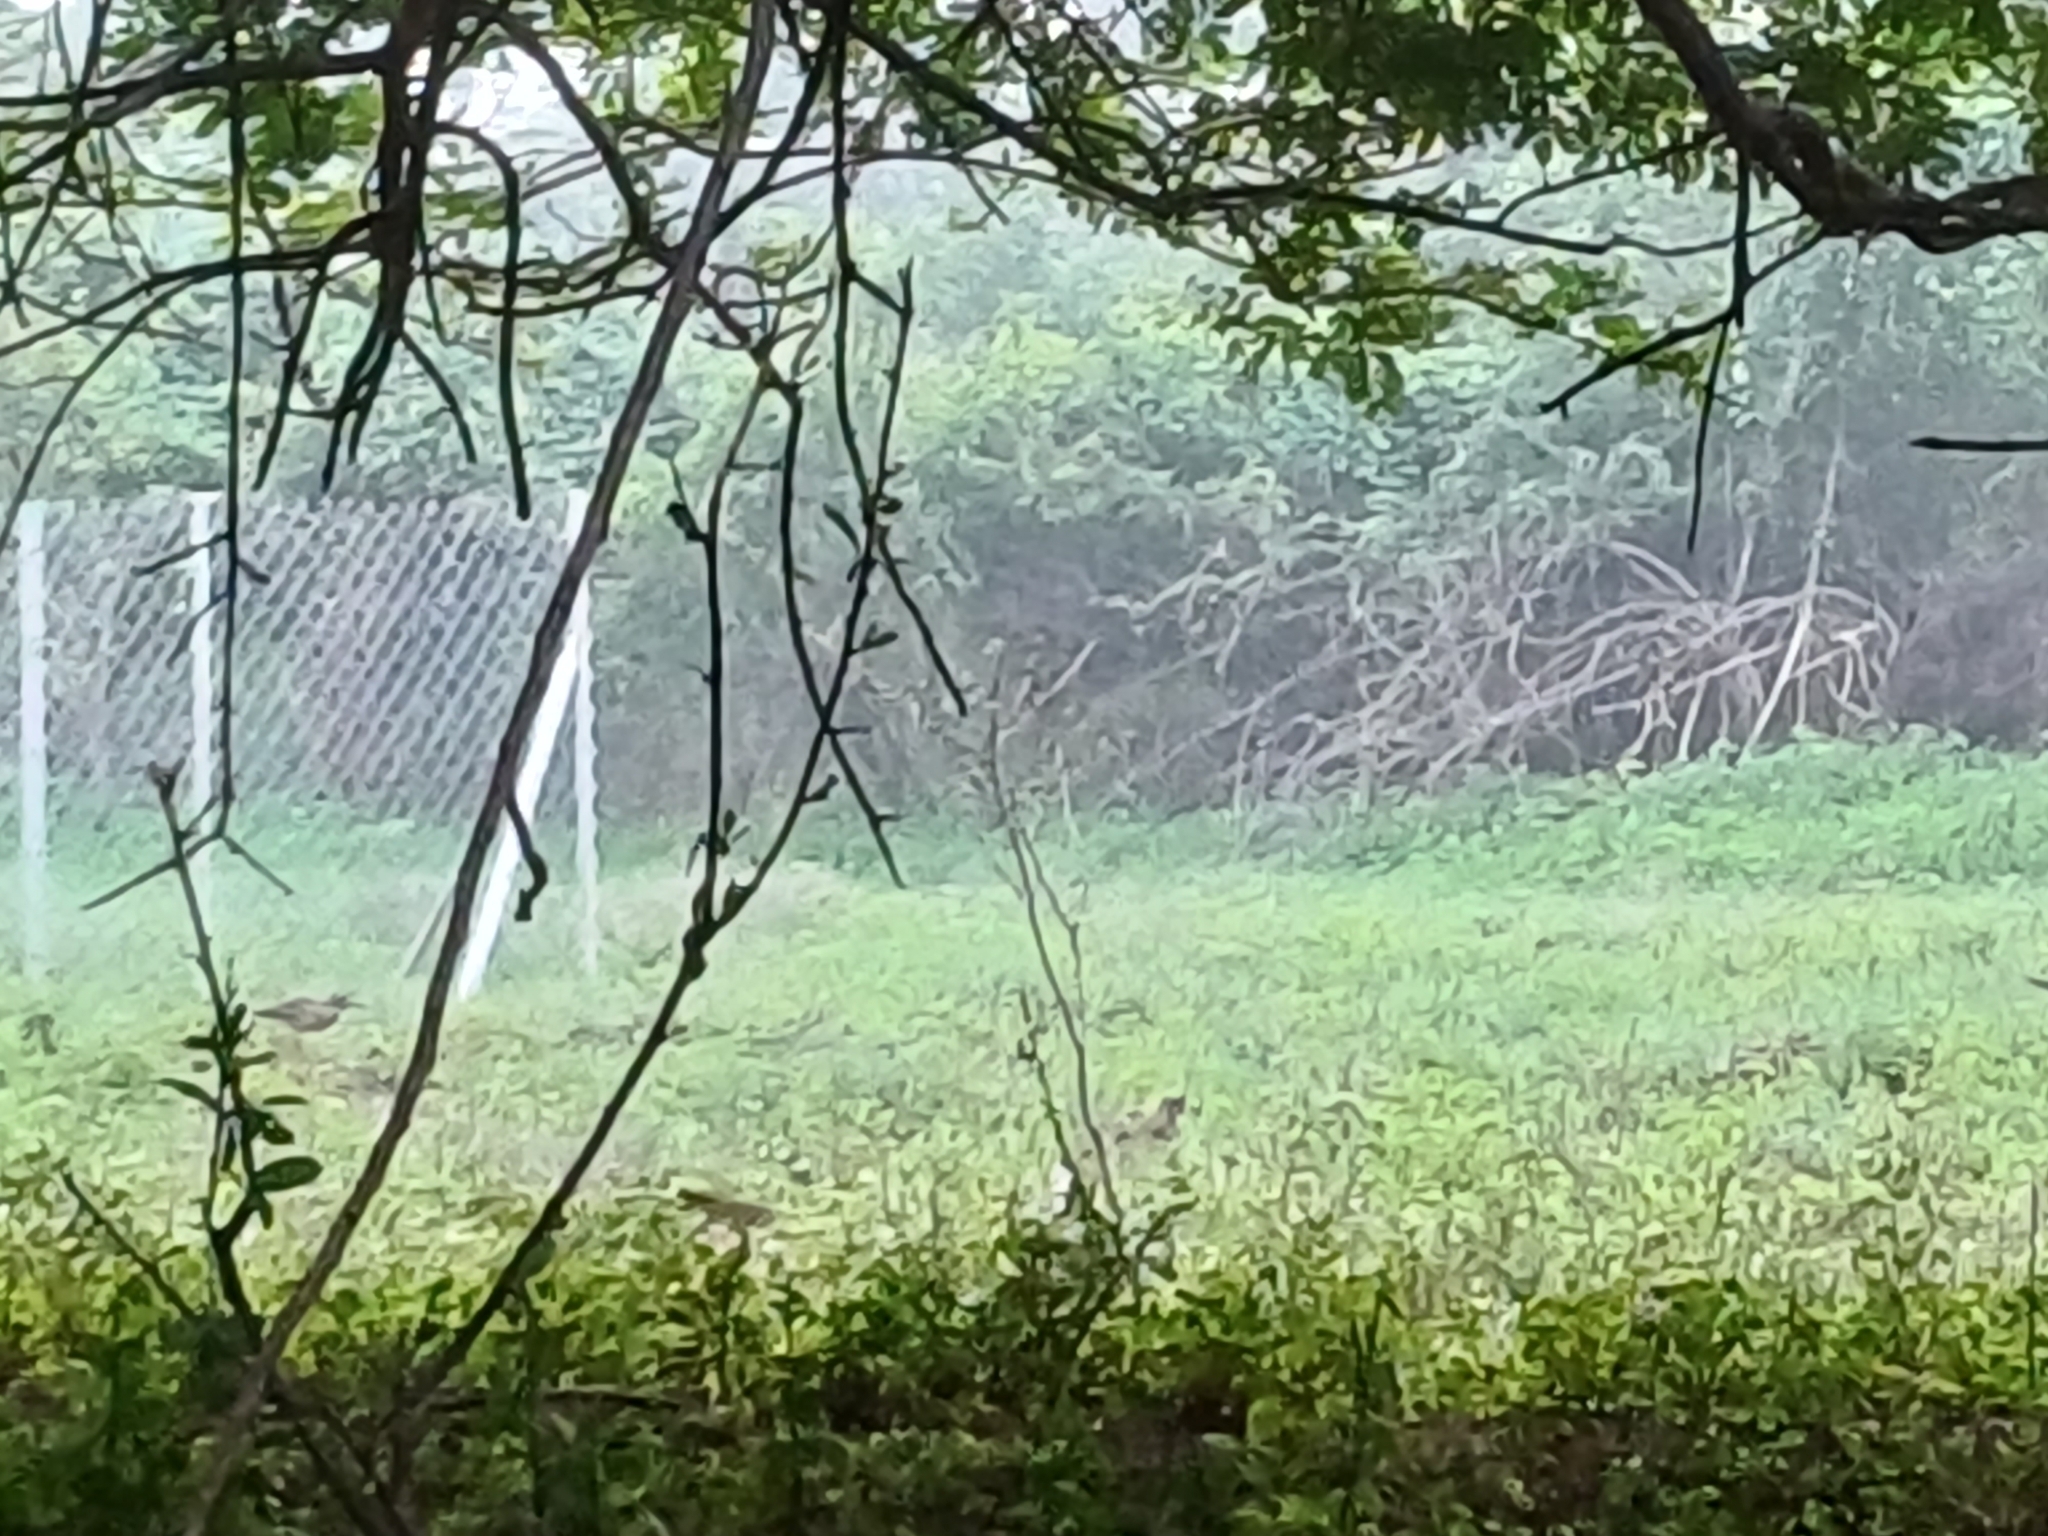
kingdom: Animalia
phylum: Chordata
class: Aves
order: Charadriiformes
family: Burhinidae
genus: Burhinus
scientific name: Burhinus indicus
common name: Indian thick-knee
